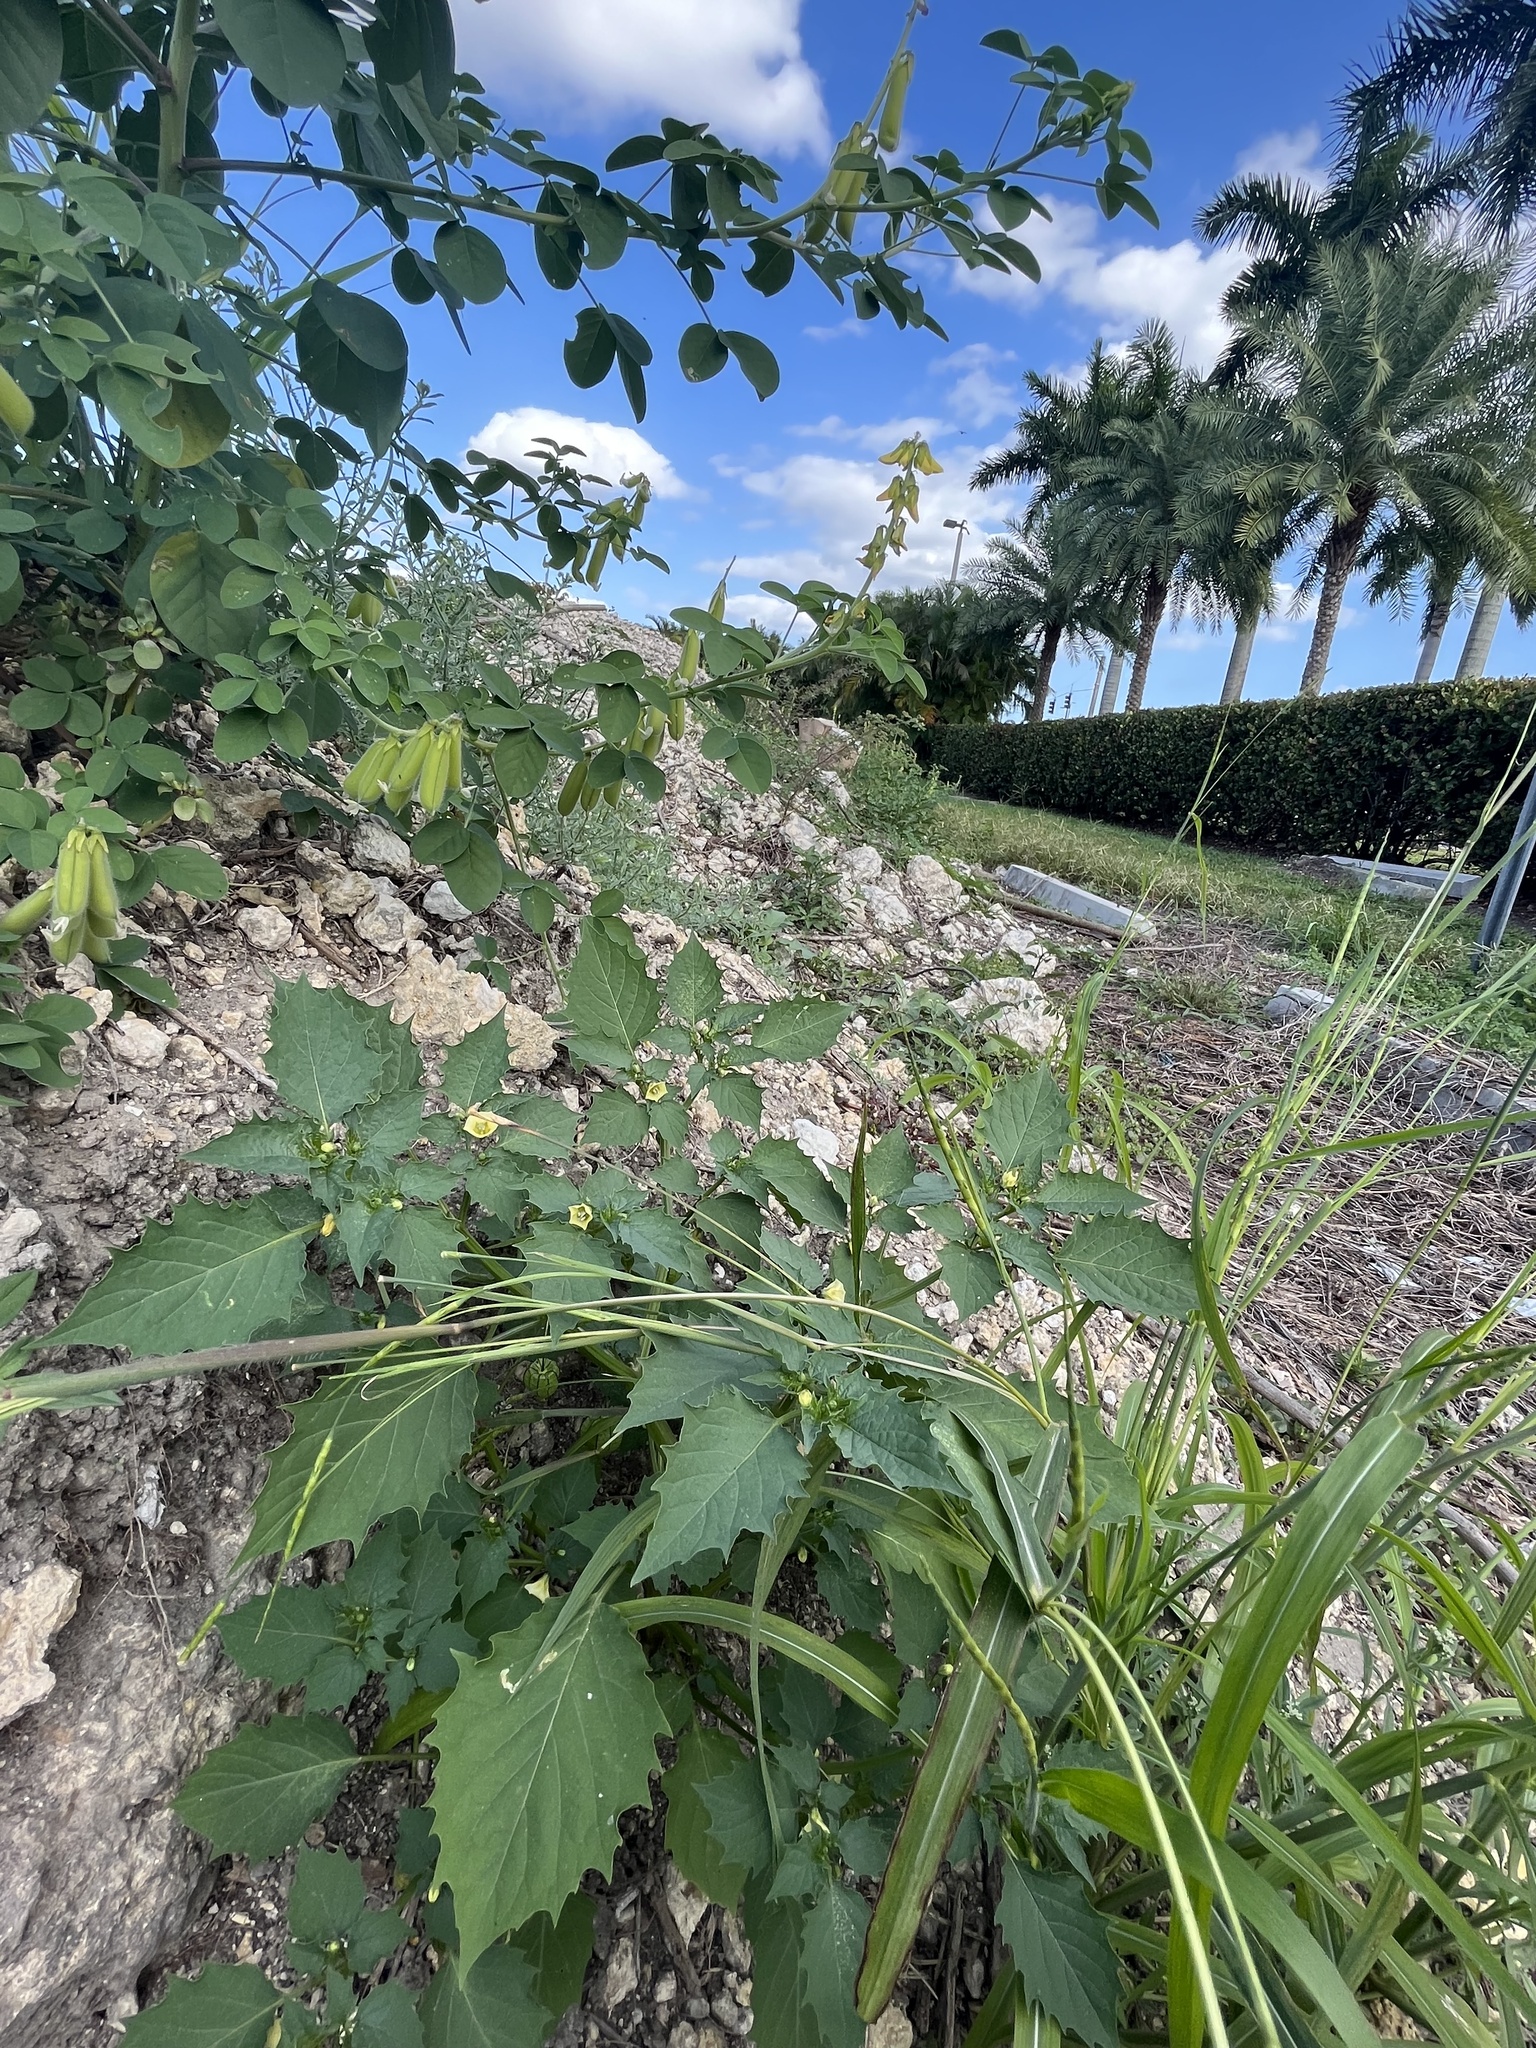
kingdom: Plantae
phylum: Tracheophyta
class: Magnoliopsida
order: Solanales
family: Solanaceae
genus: Physalis
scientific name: Physalis angulata
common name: Angular winter-cherry
